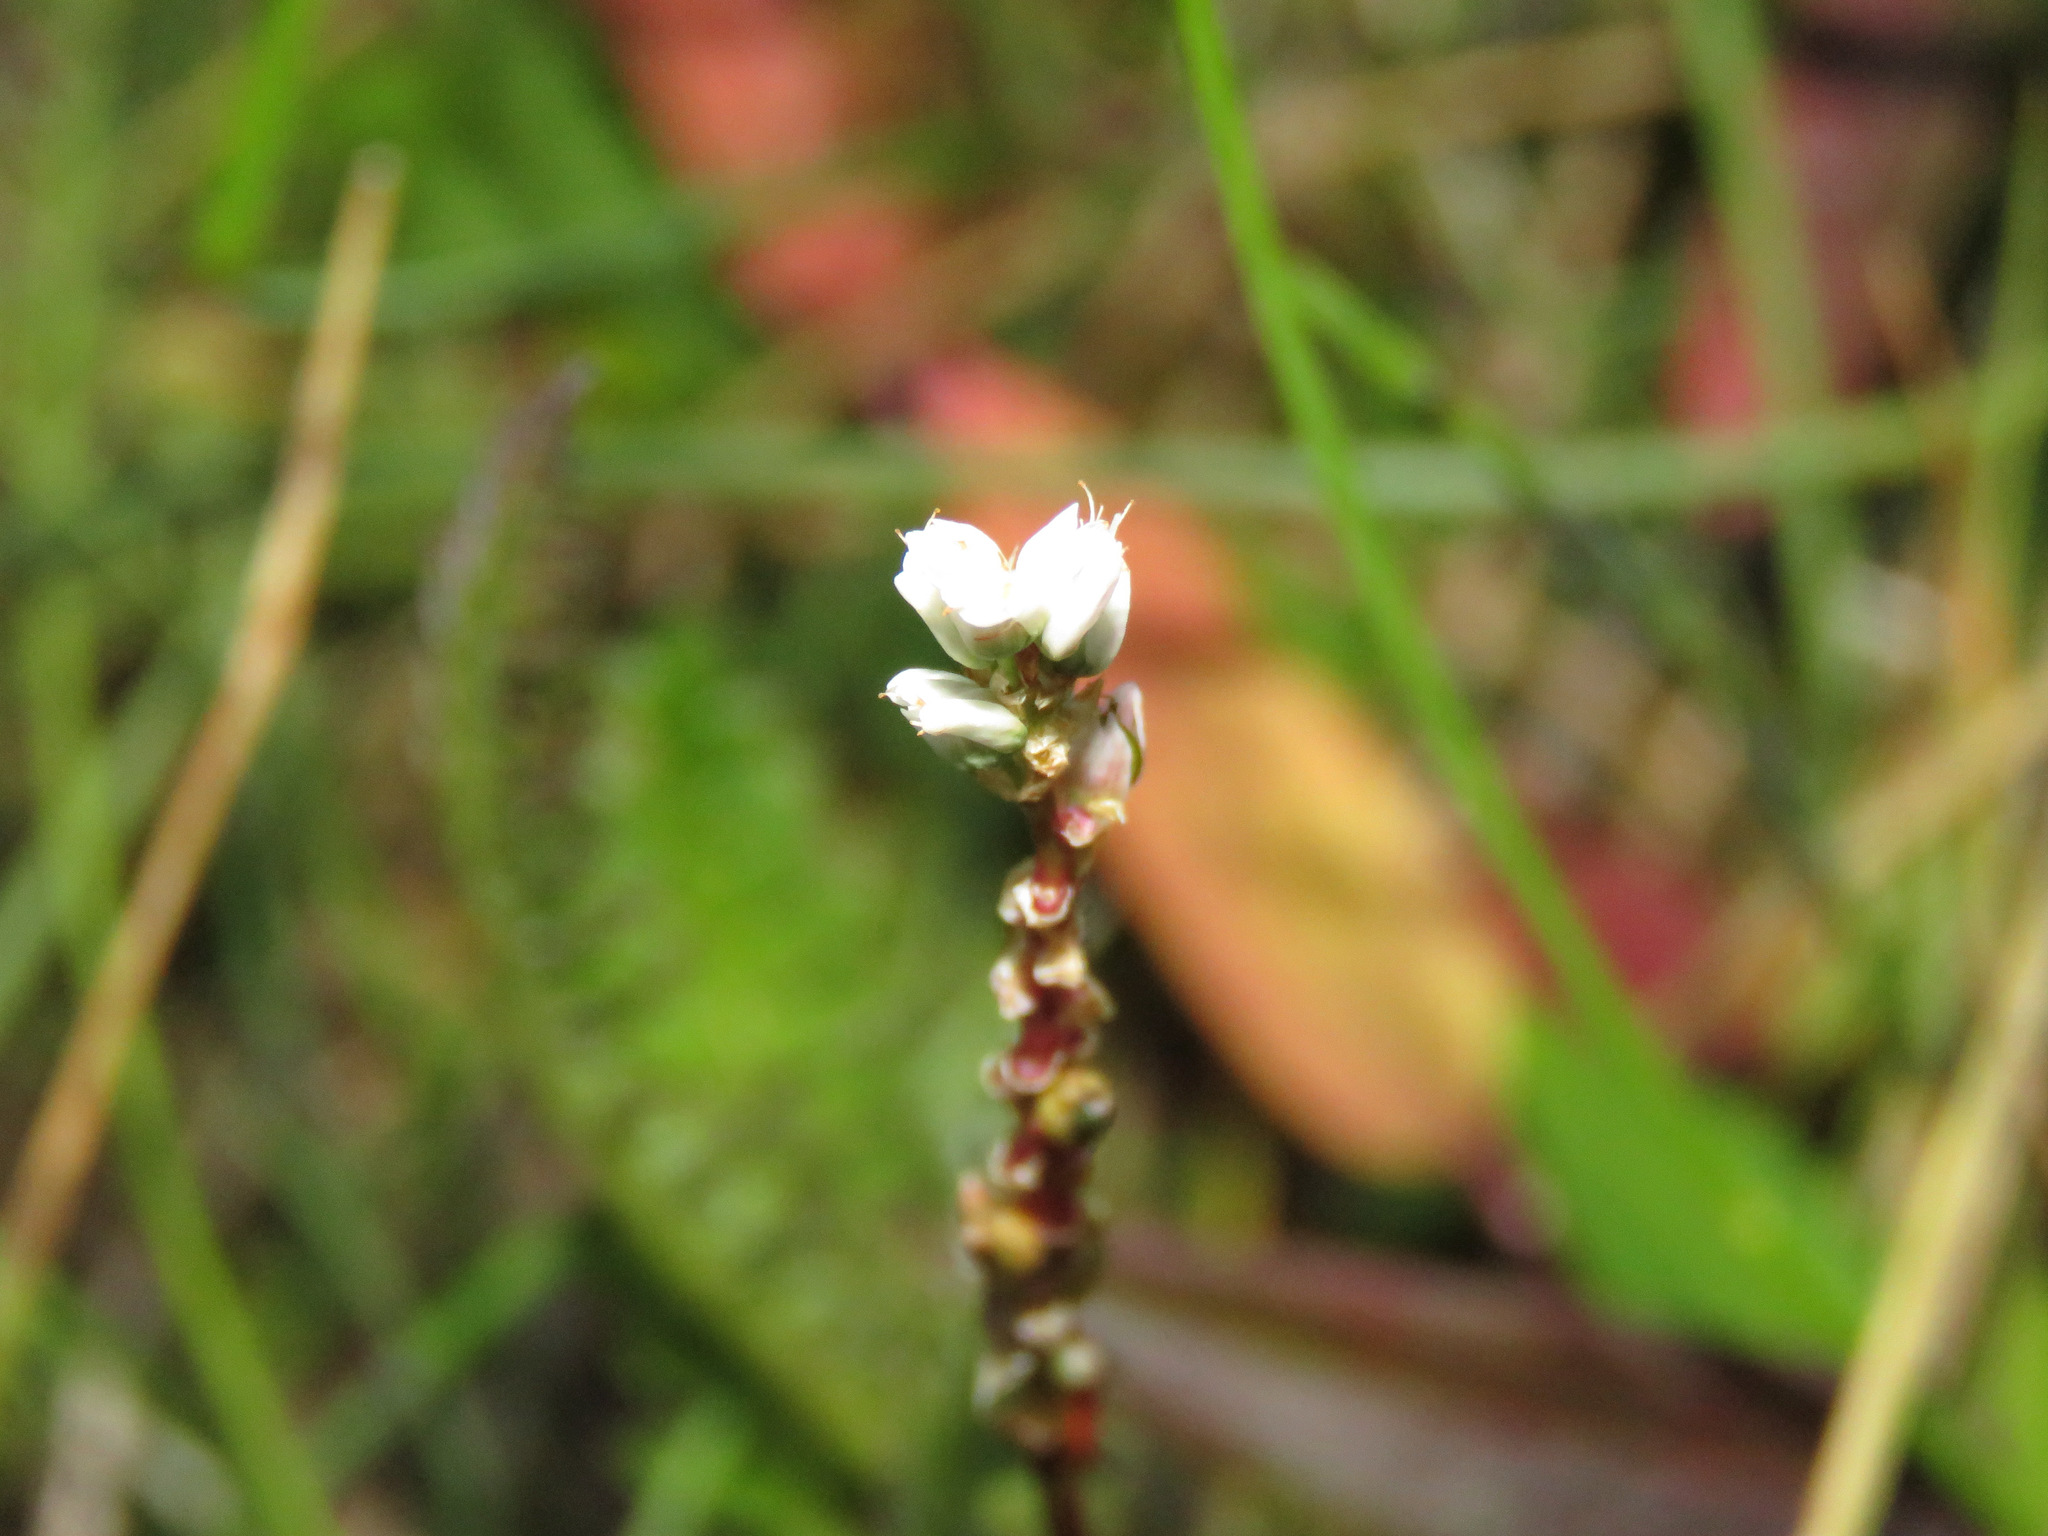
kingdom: Plantae
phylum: Tracheophyta
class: Magnoliopsida
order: Caryophyllales
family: Polygonaceae
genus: Bistorta
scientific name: Bistorta vivipara
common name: Alpine bistort
